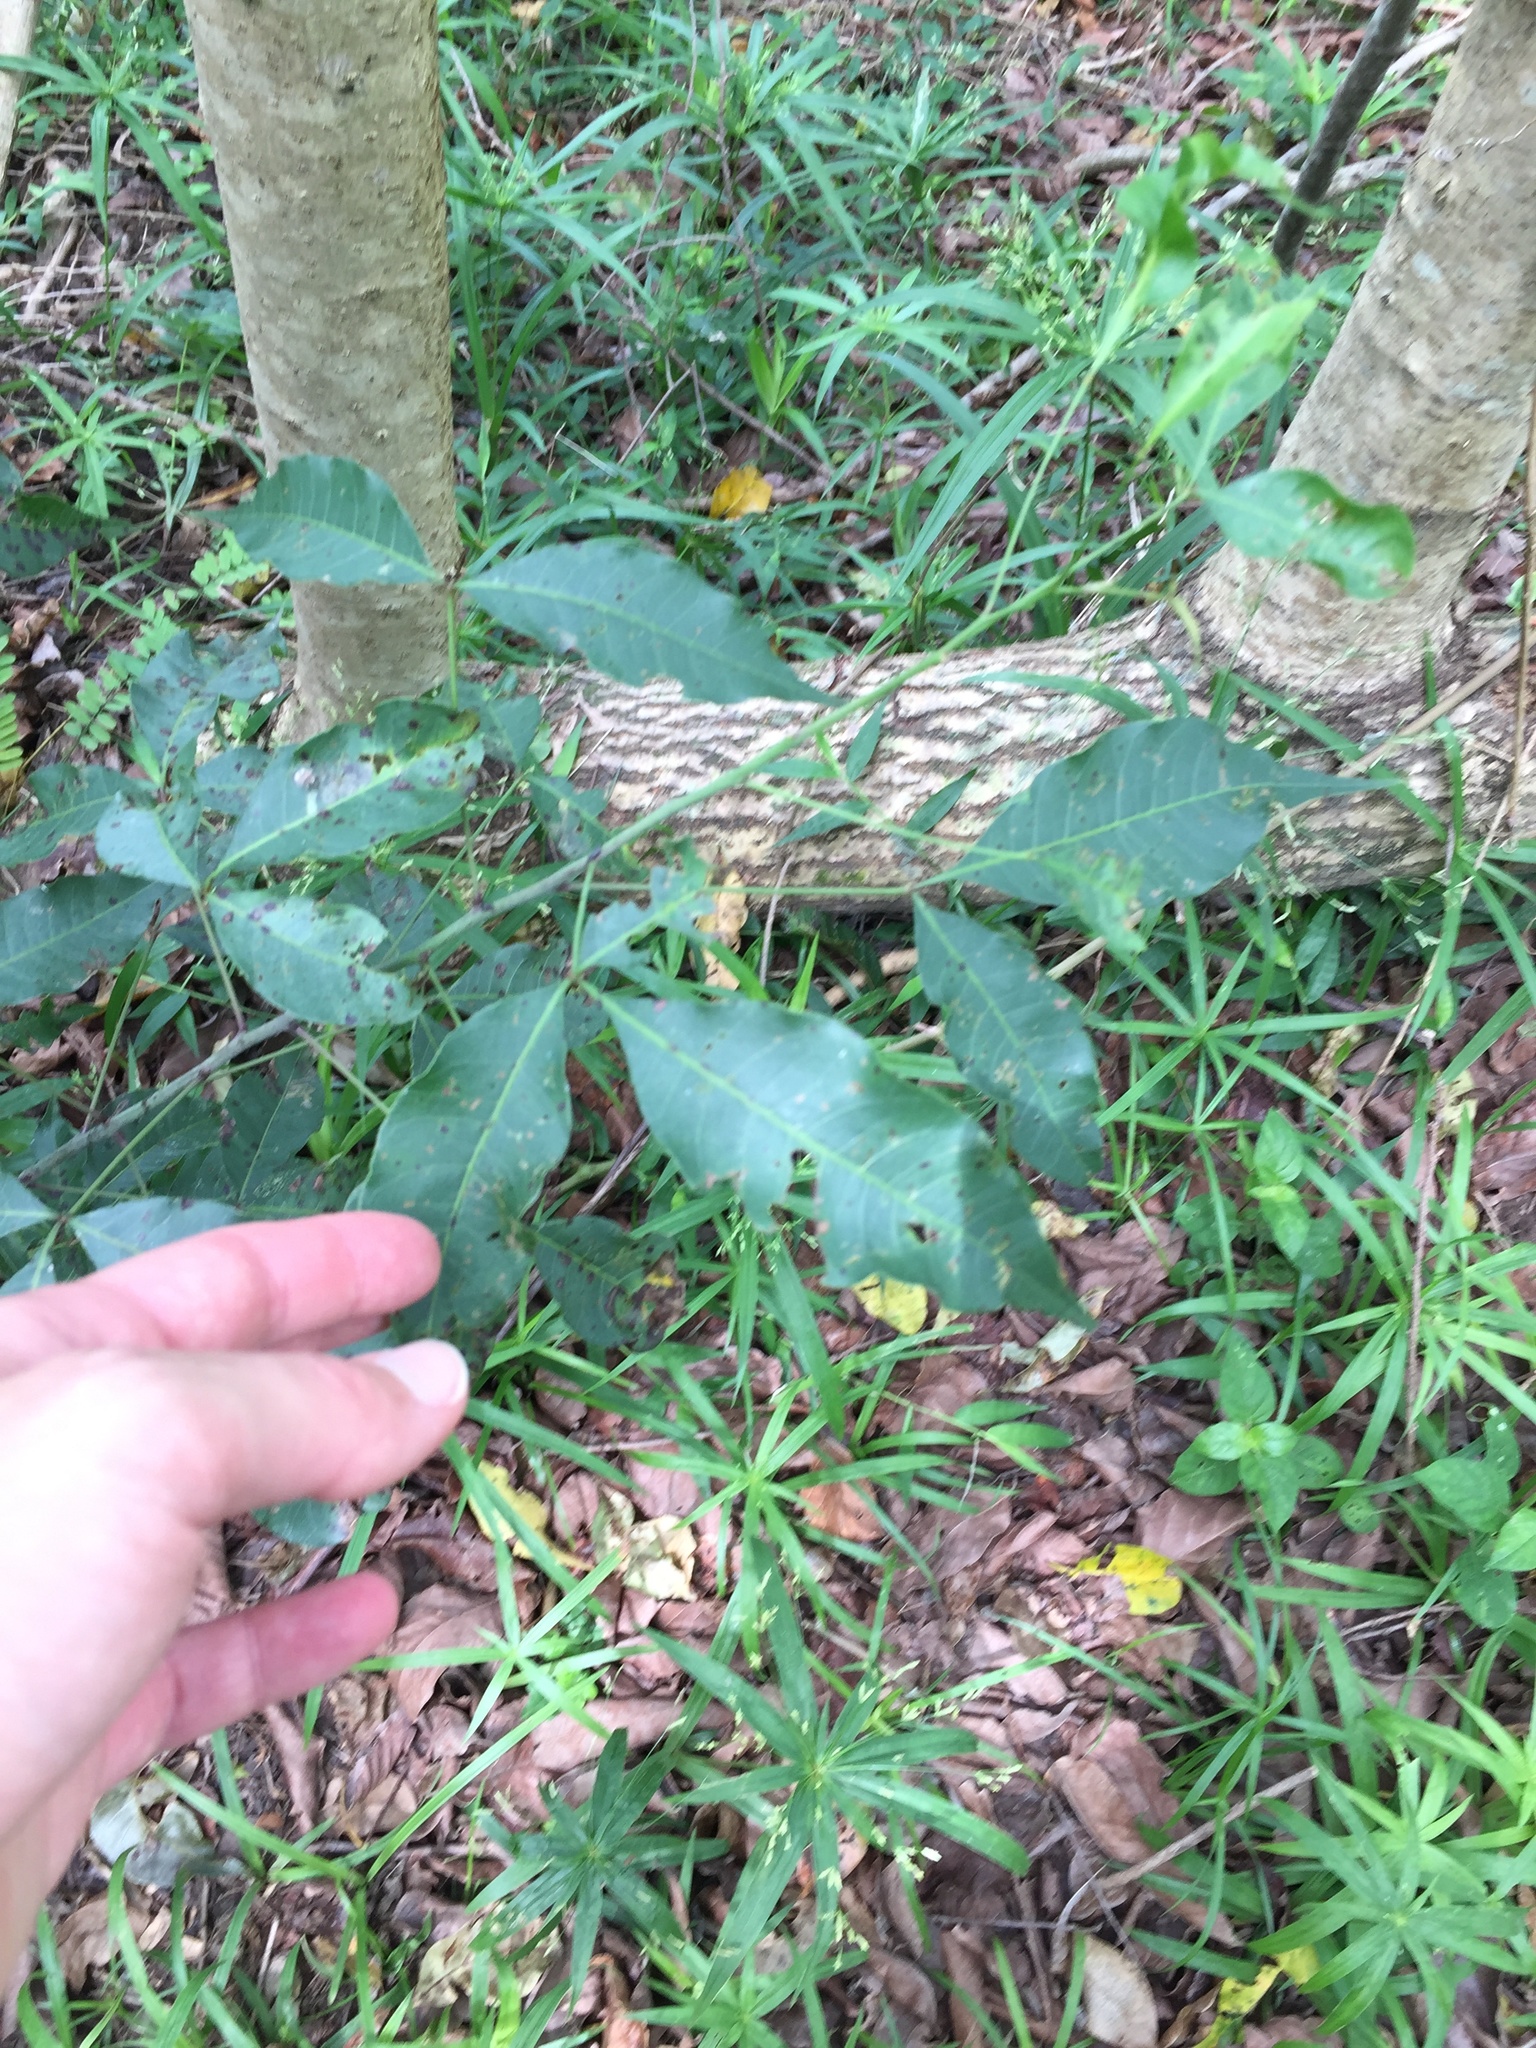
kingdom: Plantae
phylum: Tracheophyta
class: Magnoliopsida
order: Sapindales
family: Anacardiaceae
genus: Searsia
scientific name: Searsia chirindensis
